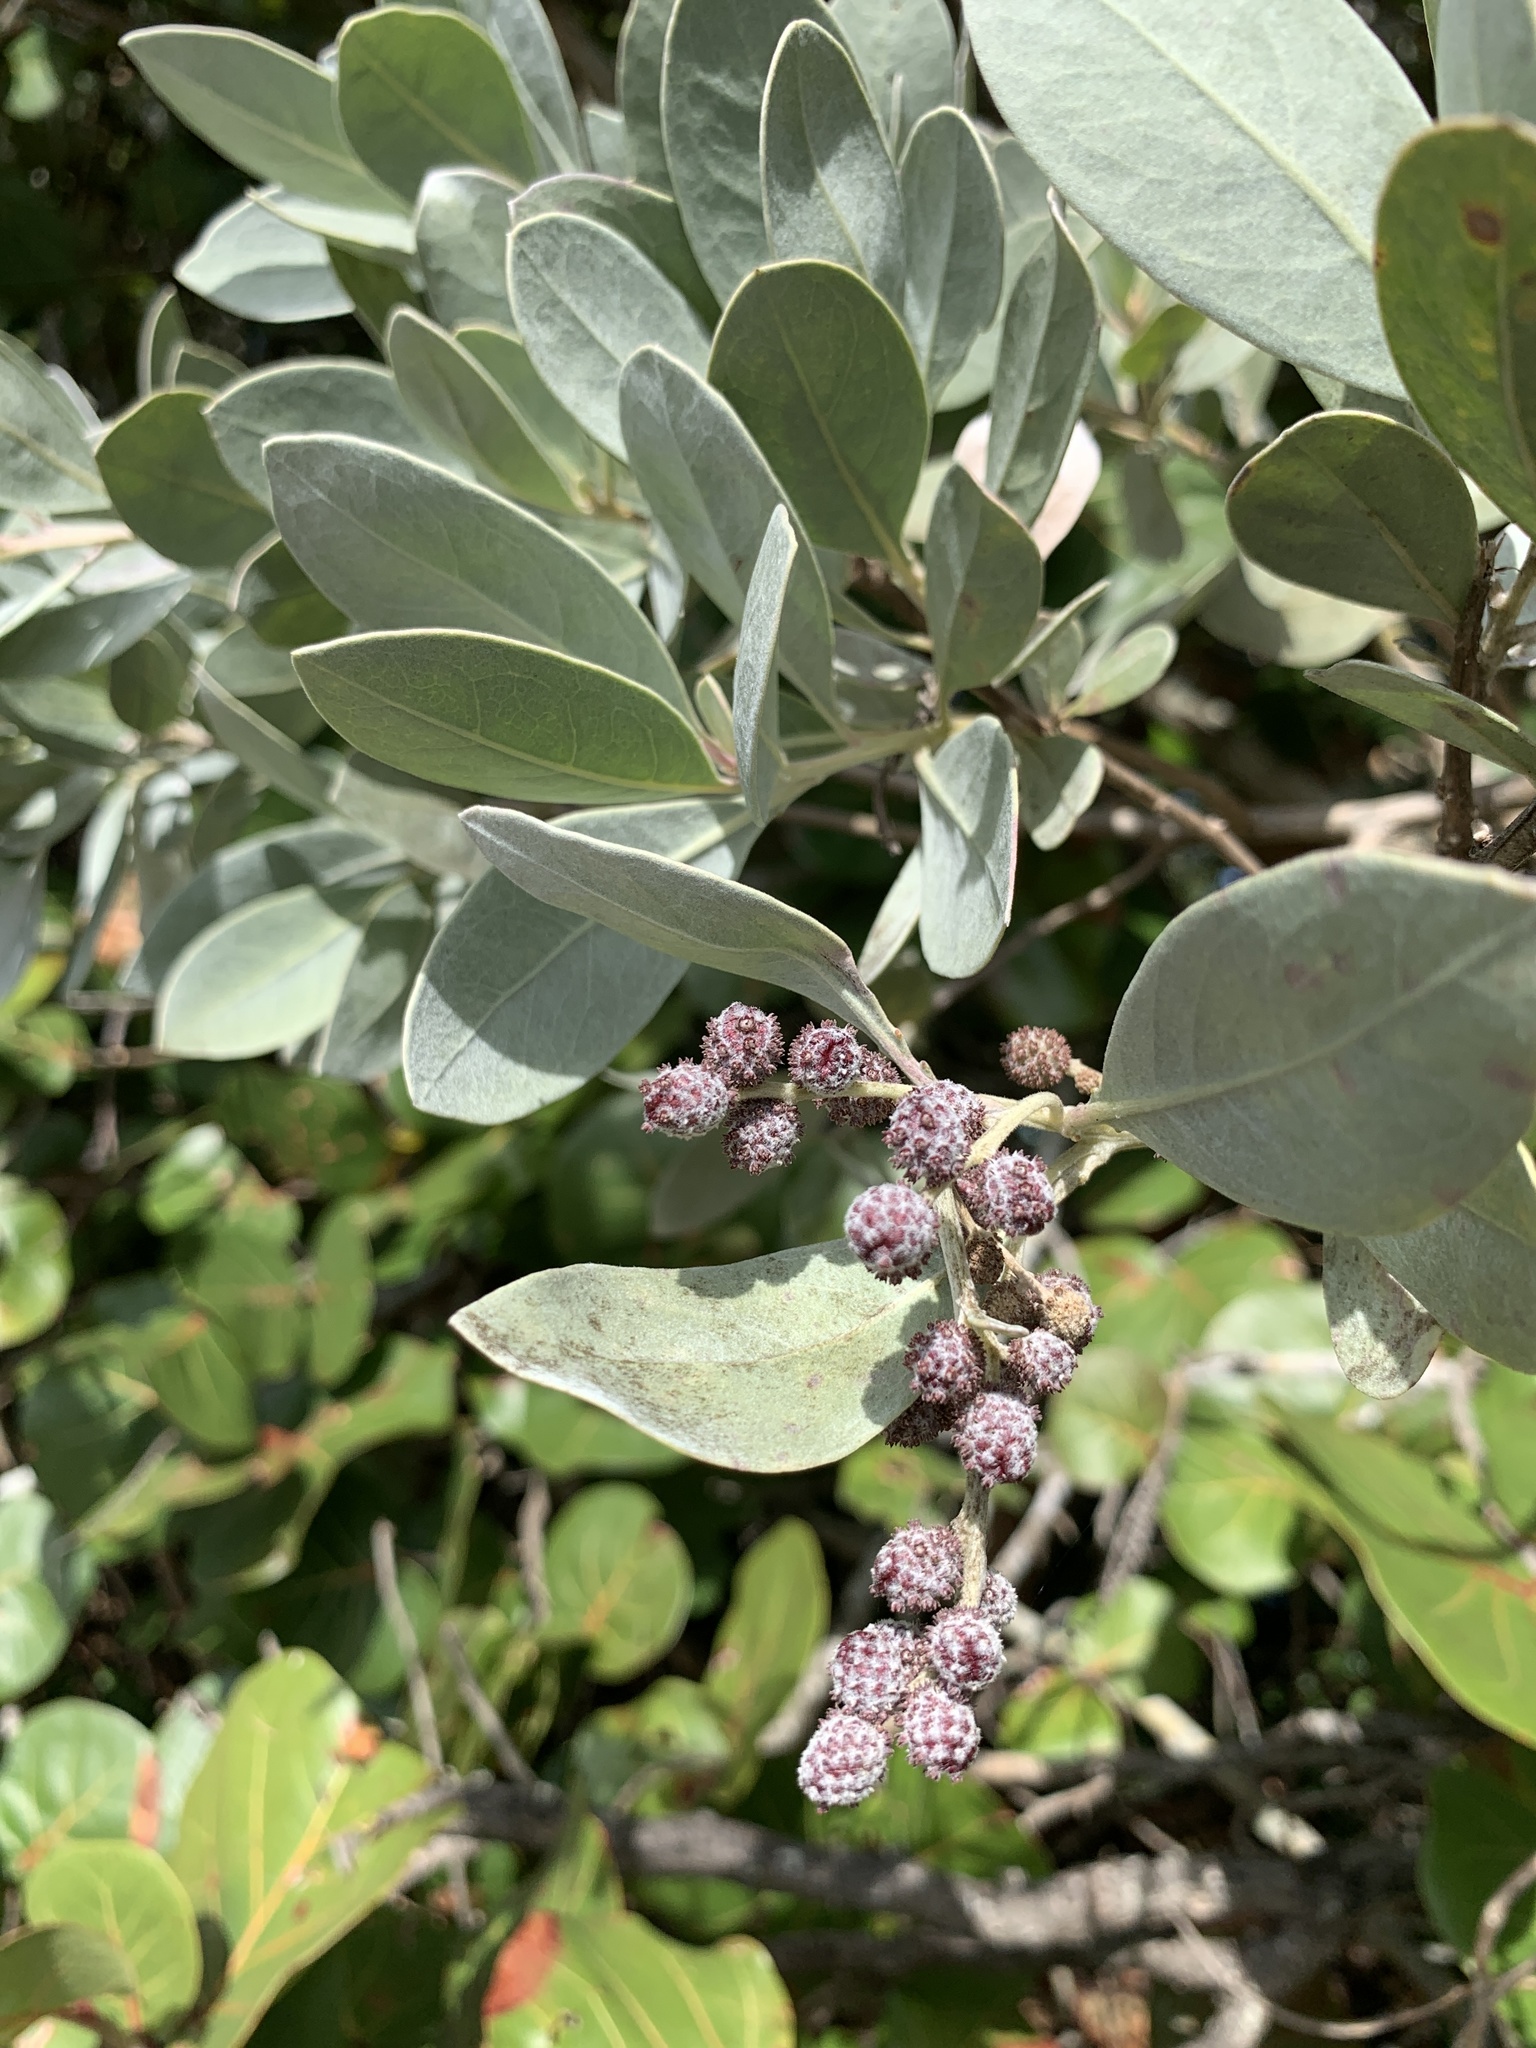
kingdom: Plantae
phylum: Tracheophyta
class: Magnoliopsida
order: Myrtales
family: Combretaceae
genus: Conocarpus
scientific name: Conocarpus erectus
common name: Button mangrove
